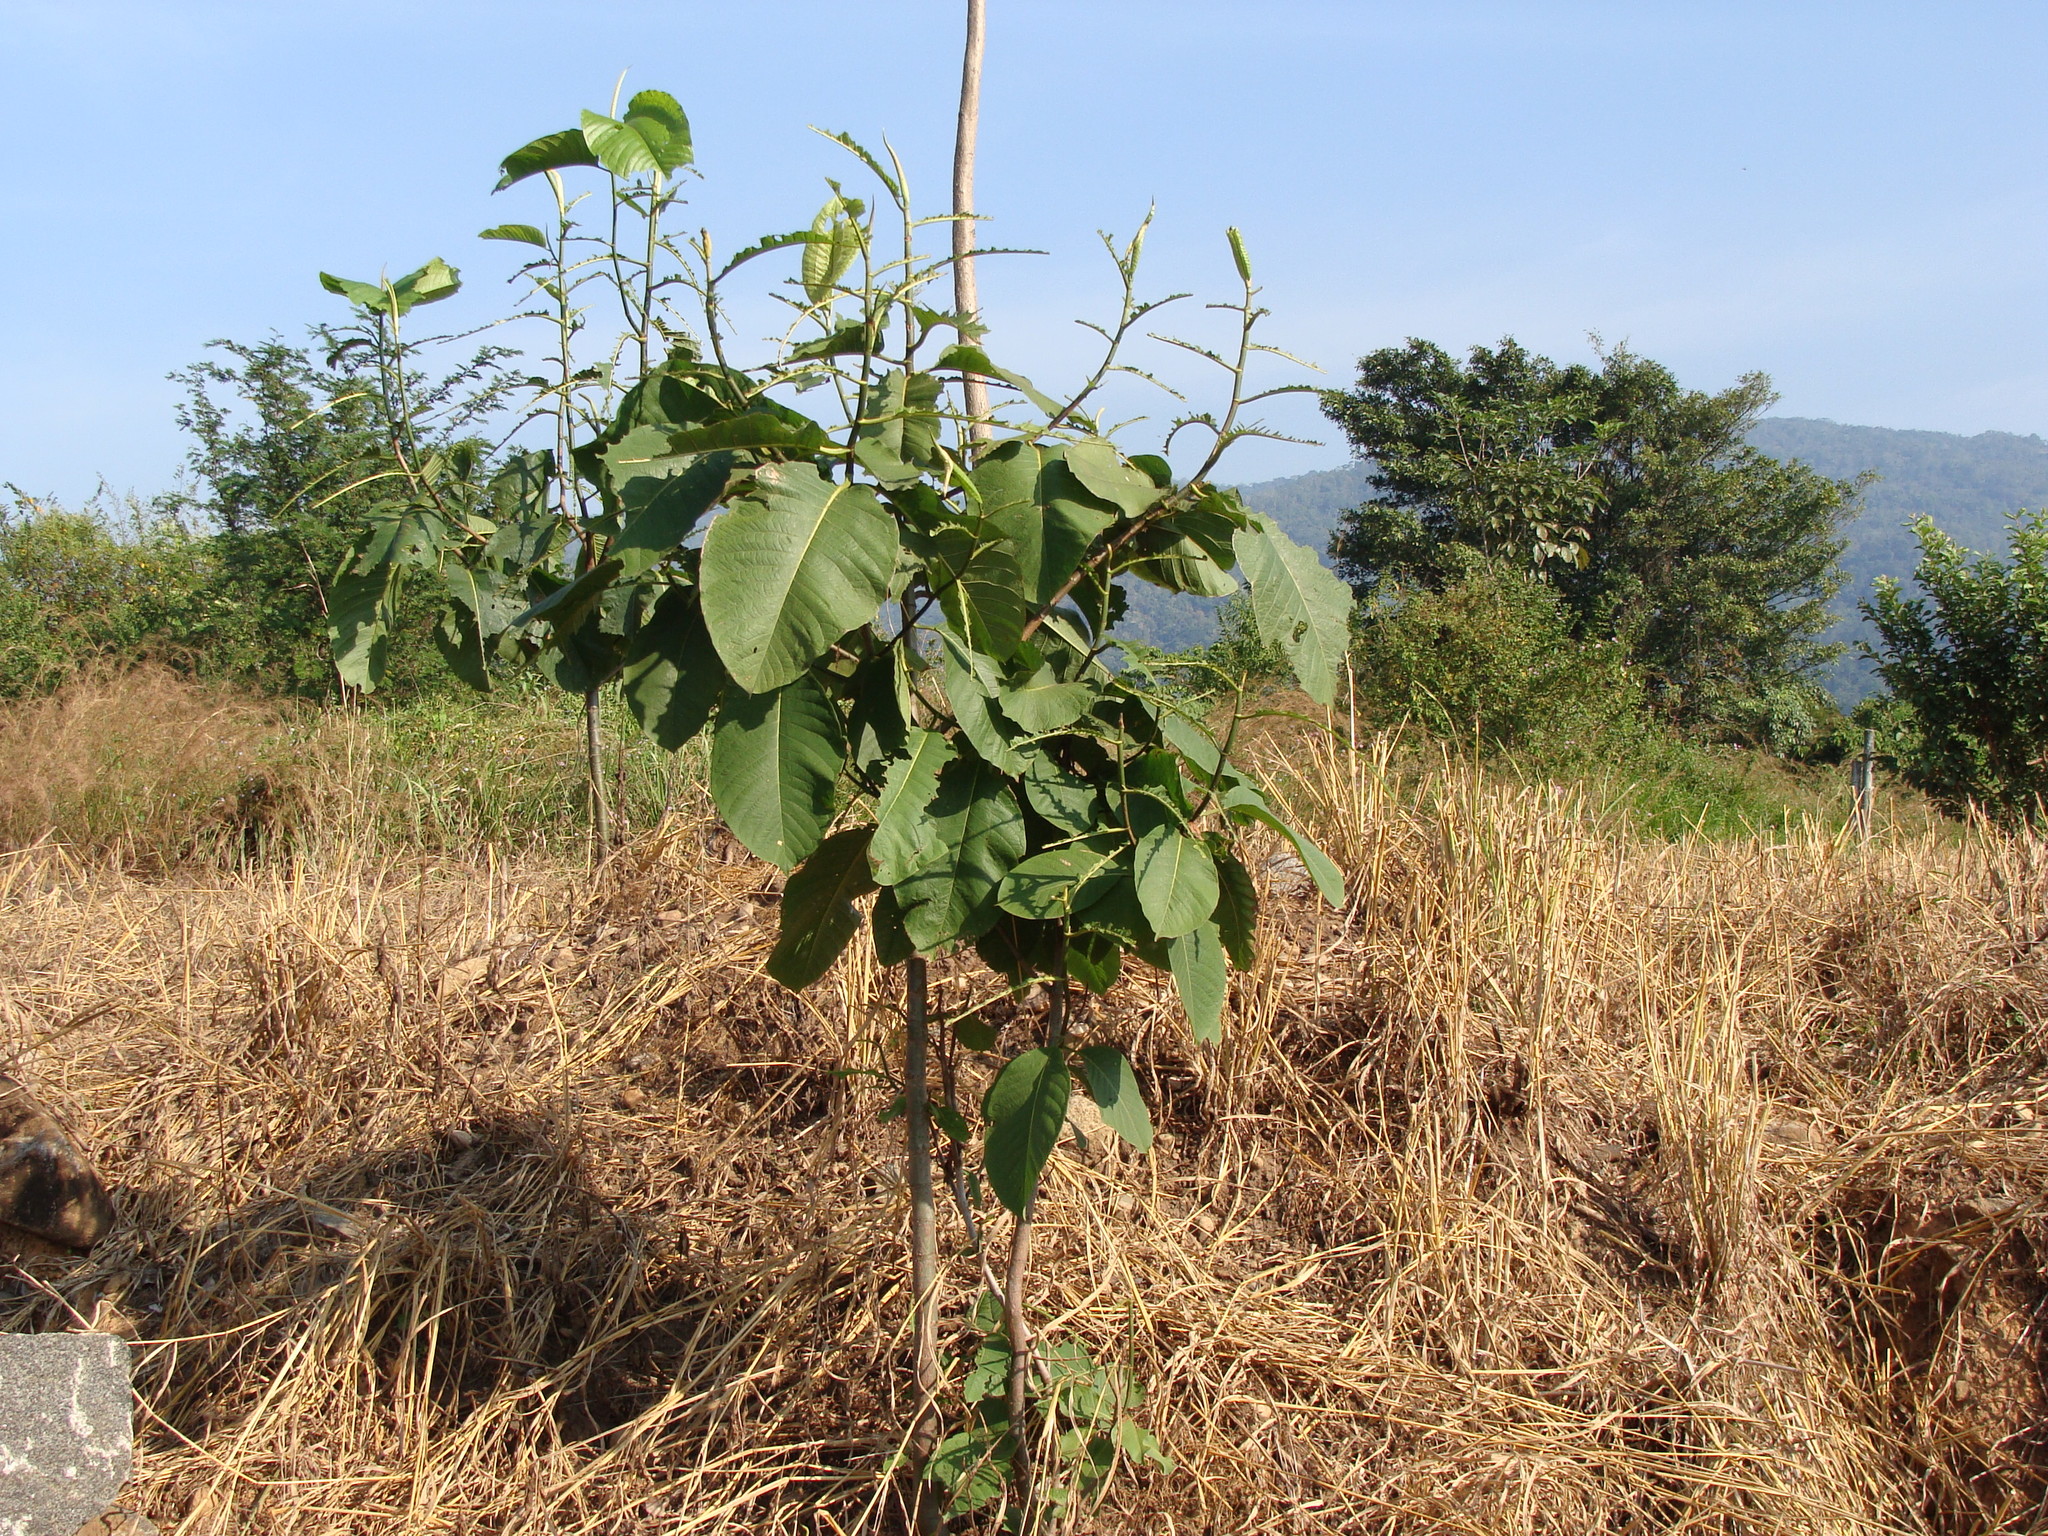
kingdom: Plantae
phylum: Tracheophyta
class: Magnoliopsida
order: Caryophyllales
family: Polygonaceae
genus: Triplaris
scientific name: Triplaris melaenodendron
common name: Long john
